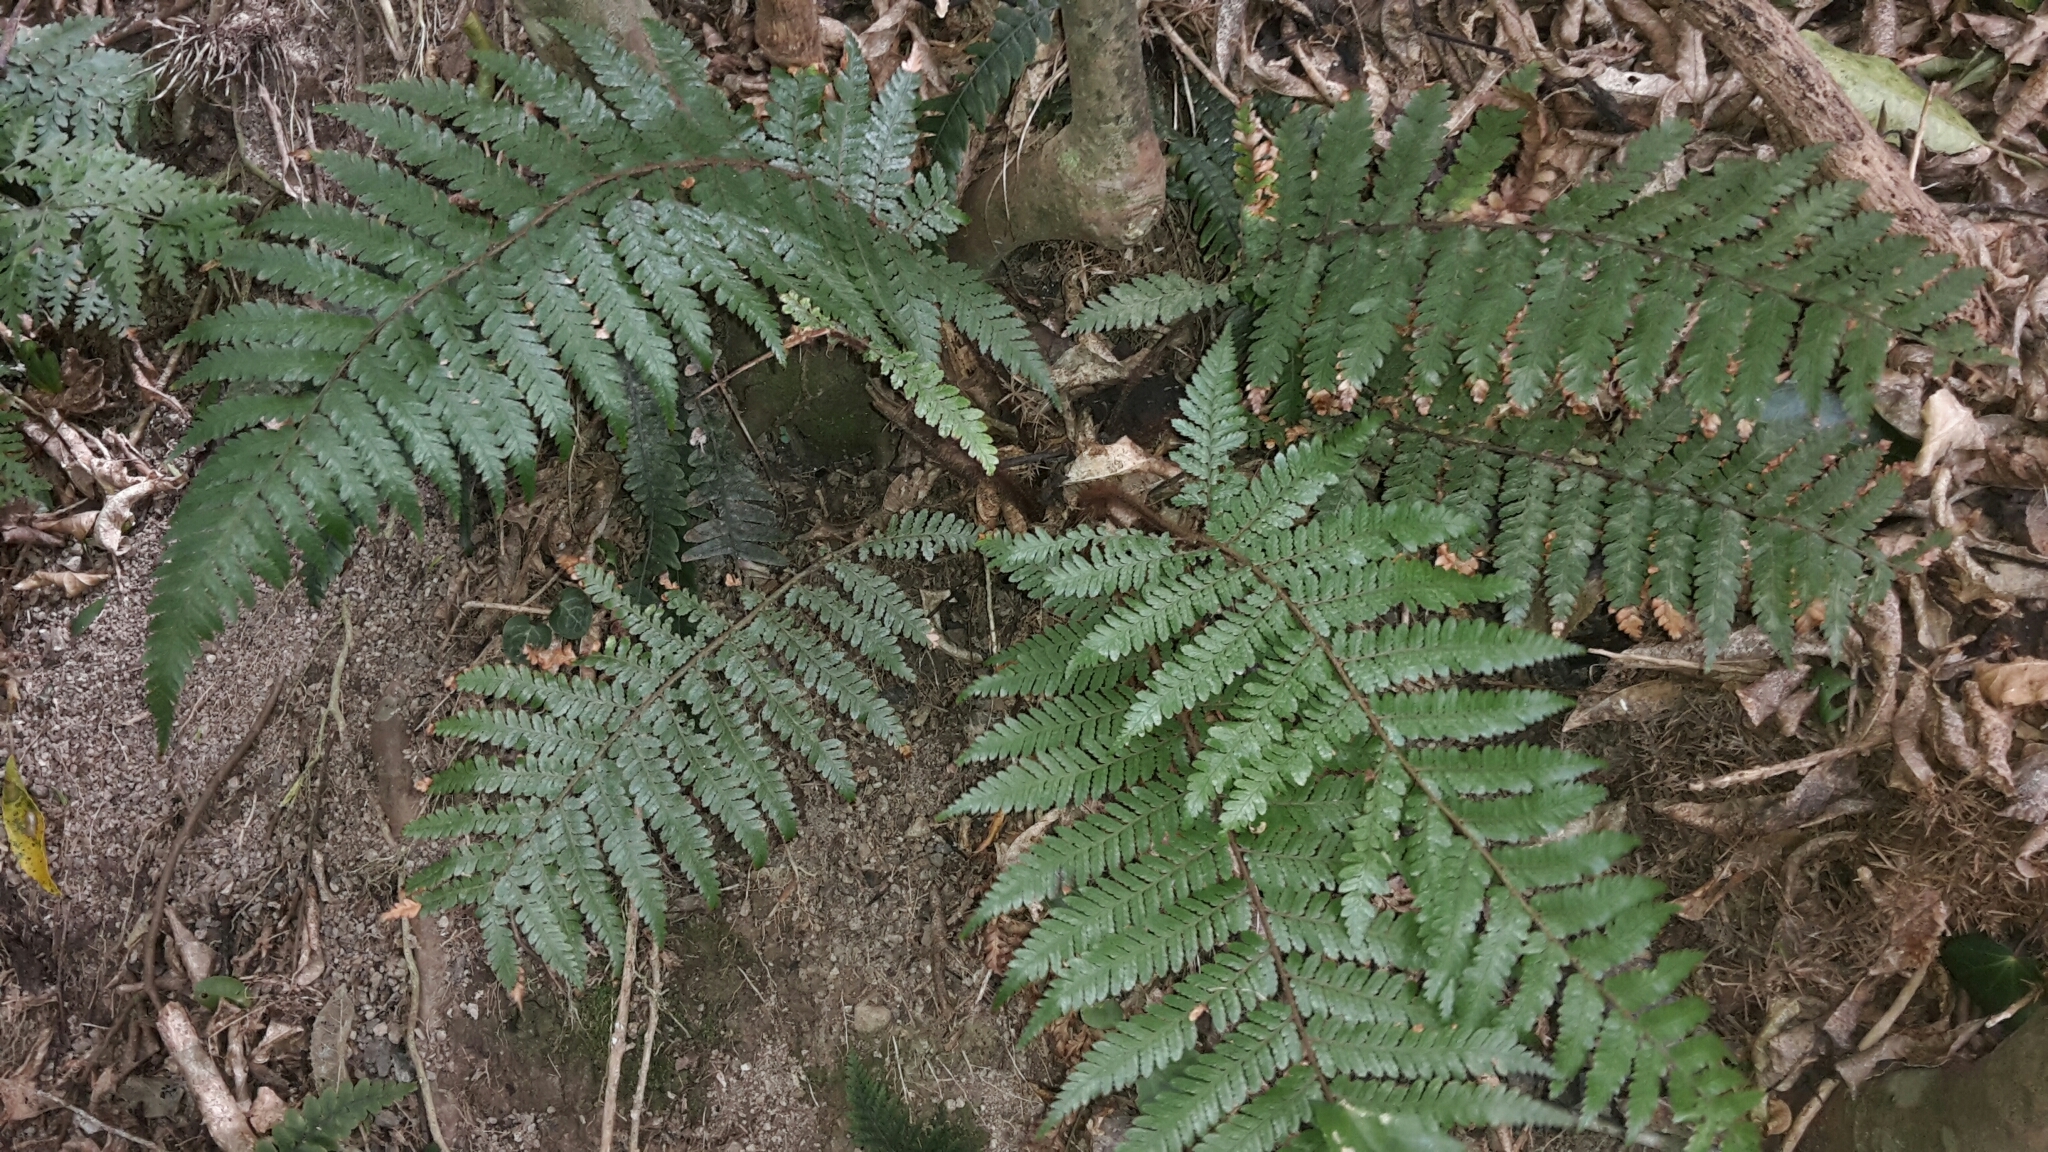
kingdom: Plantae
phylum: Tracheophyta
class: Polypodiopsida
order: Cyatheales
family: Dicksoniaceae
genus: Dicksonia
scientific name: Dicksonia squarrosa
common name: Hard treefern
